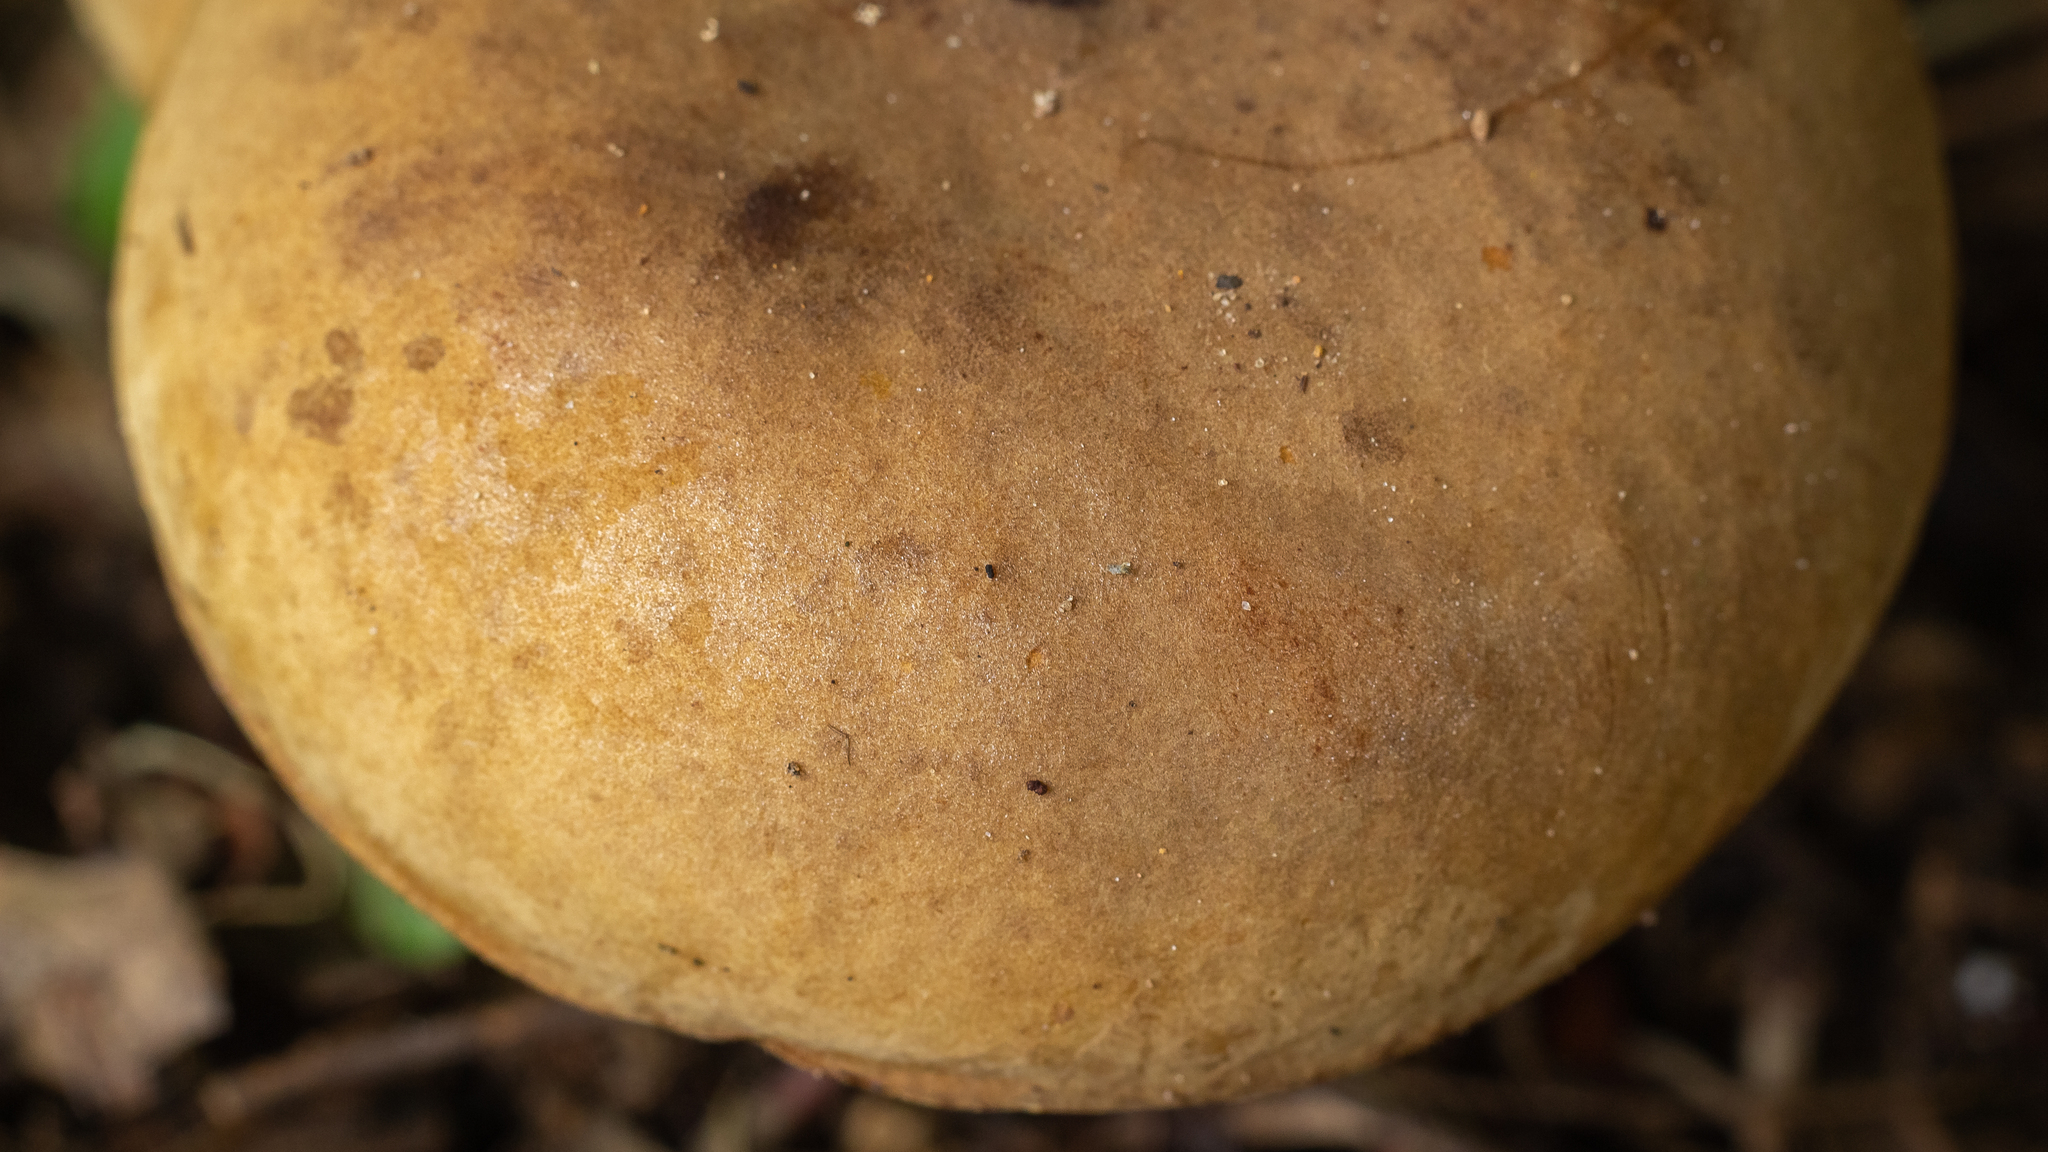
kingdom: Fungi
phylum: Basidiomycota
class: Agaricomycetes
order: Boletales
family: Boletinellaceae
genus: Phlebopus
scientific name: Phlebopus beniensis
